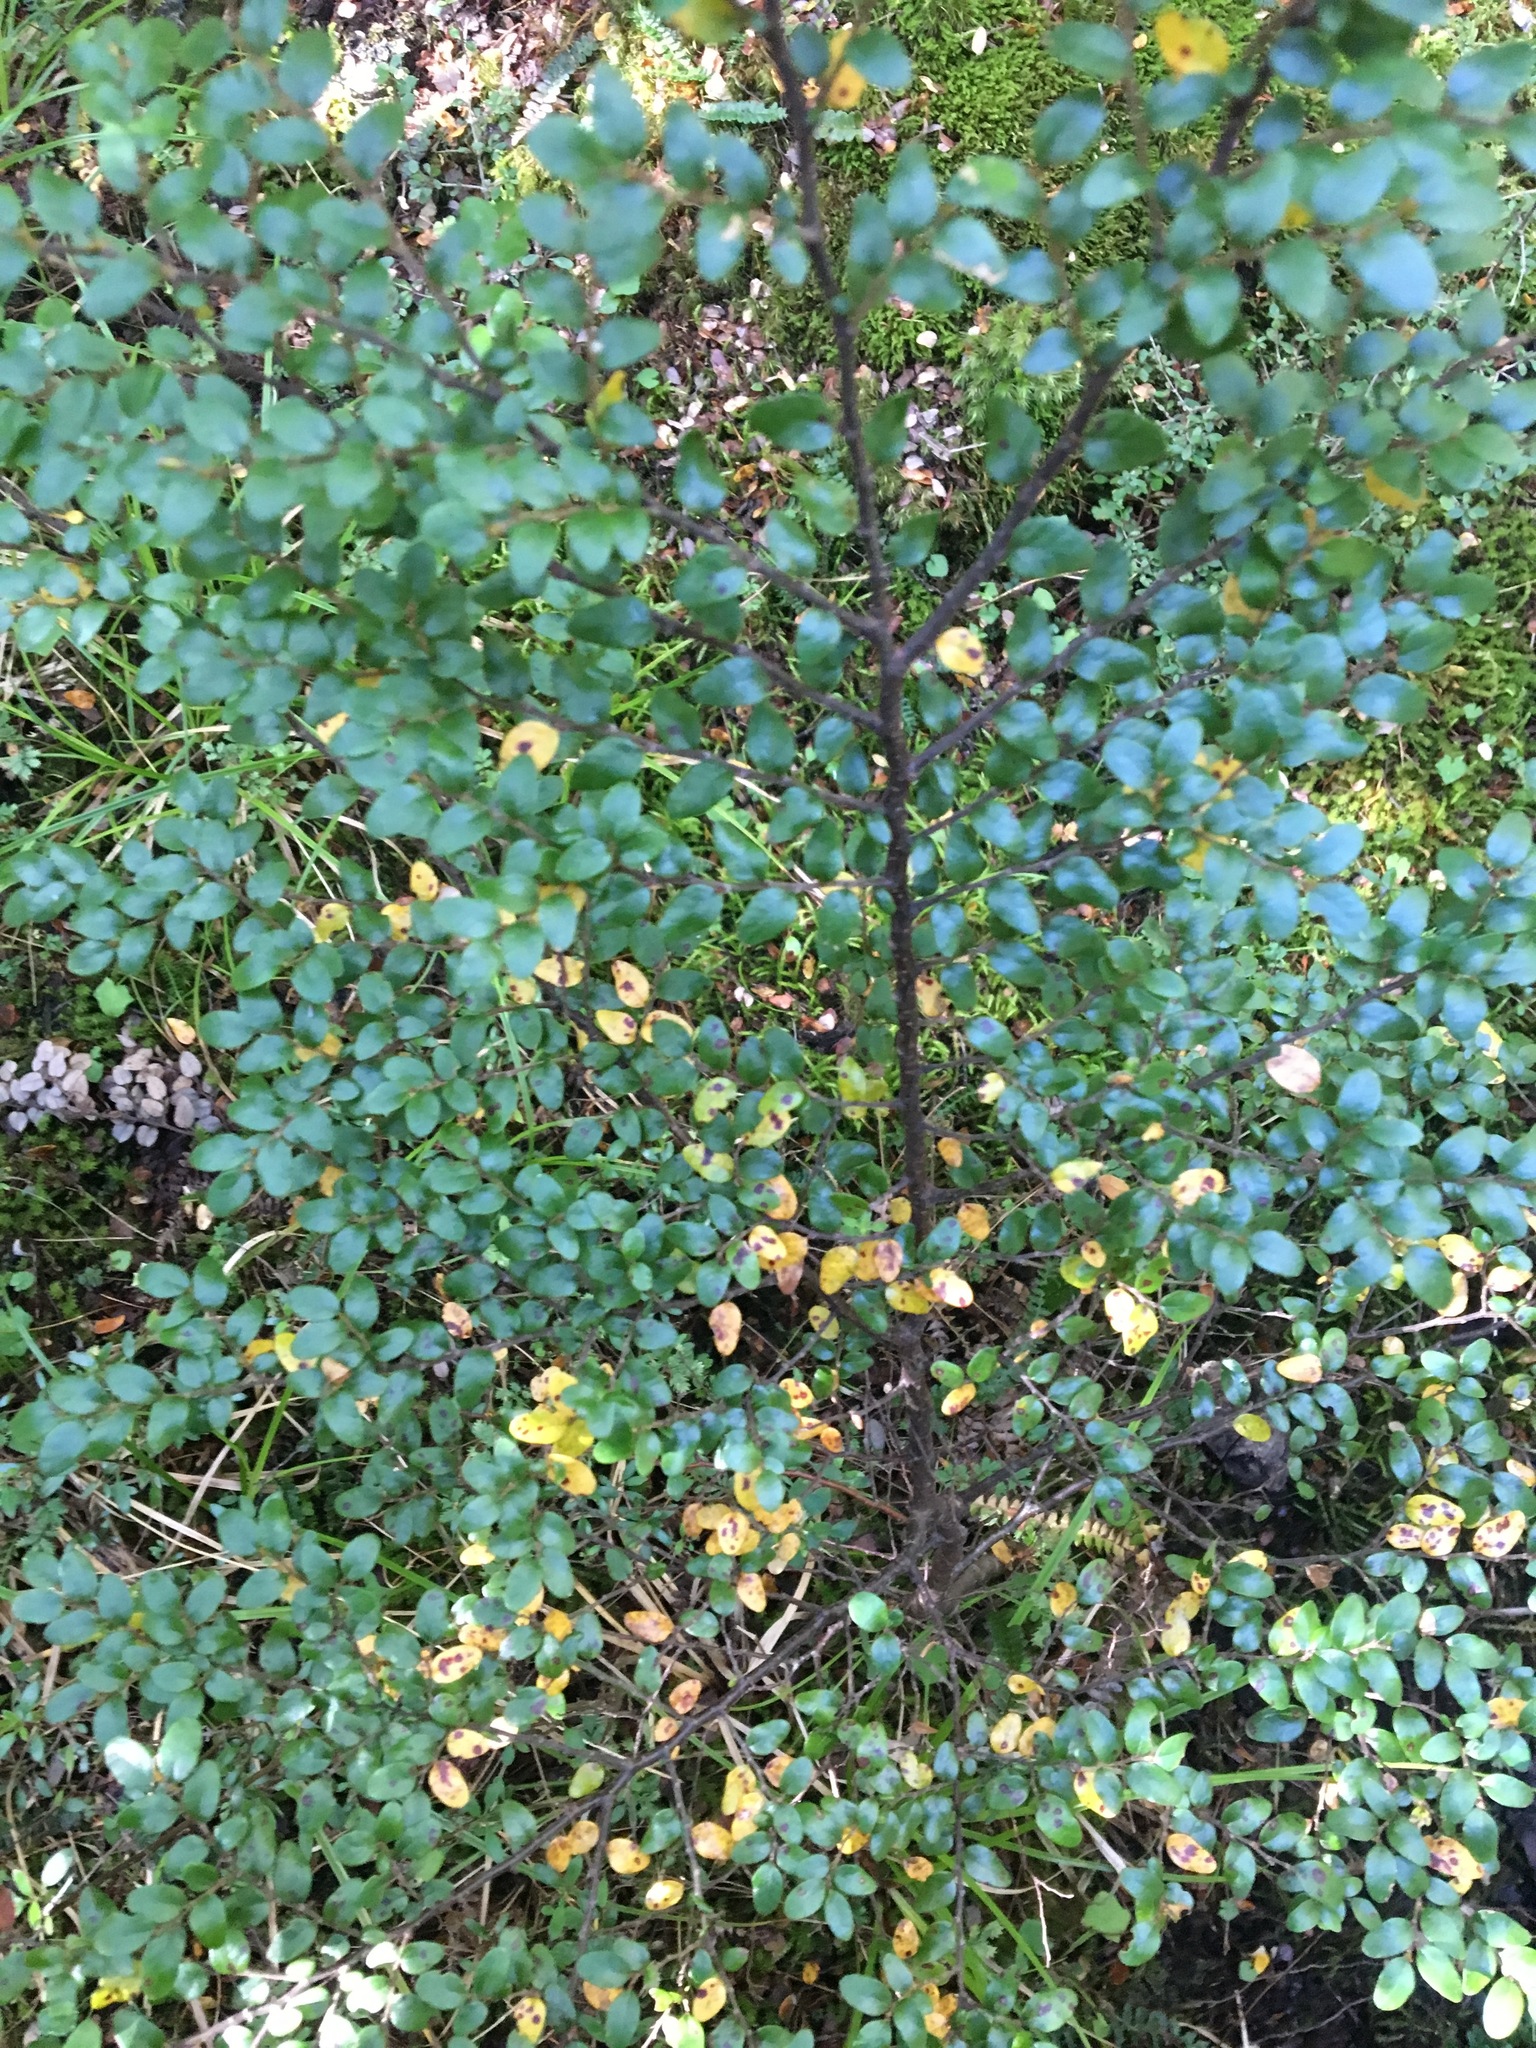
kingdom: Plantae
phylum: Tracheophyta
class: Magnoliopsida
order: Fagales
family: Nothofagaceae
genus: Nothofagus
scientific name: Nothofagus cliffortioides
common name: Mountain beech
